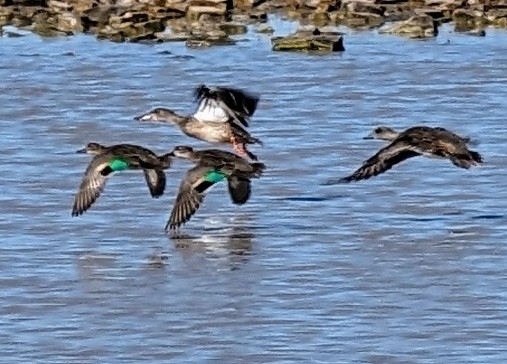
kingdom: Animalia
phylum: Chordata
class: Aves
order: Anseriformes
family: Anatidae
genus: Anas
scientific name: Anas crecca
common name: Eurasian teal
